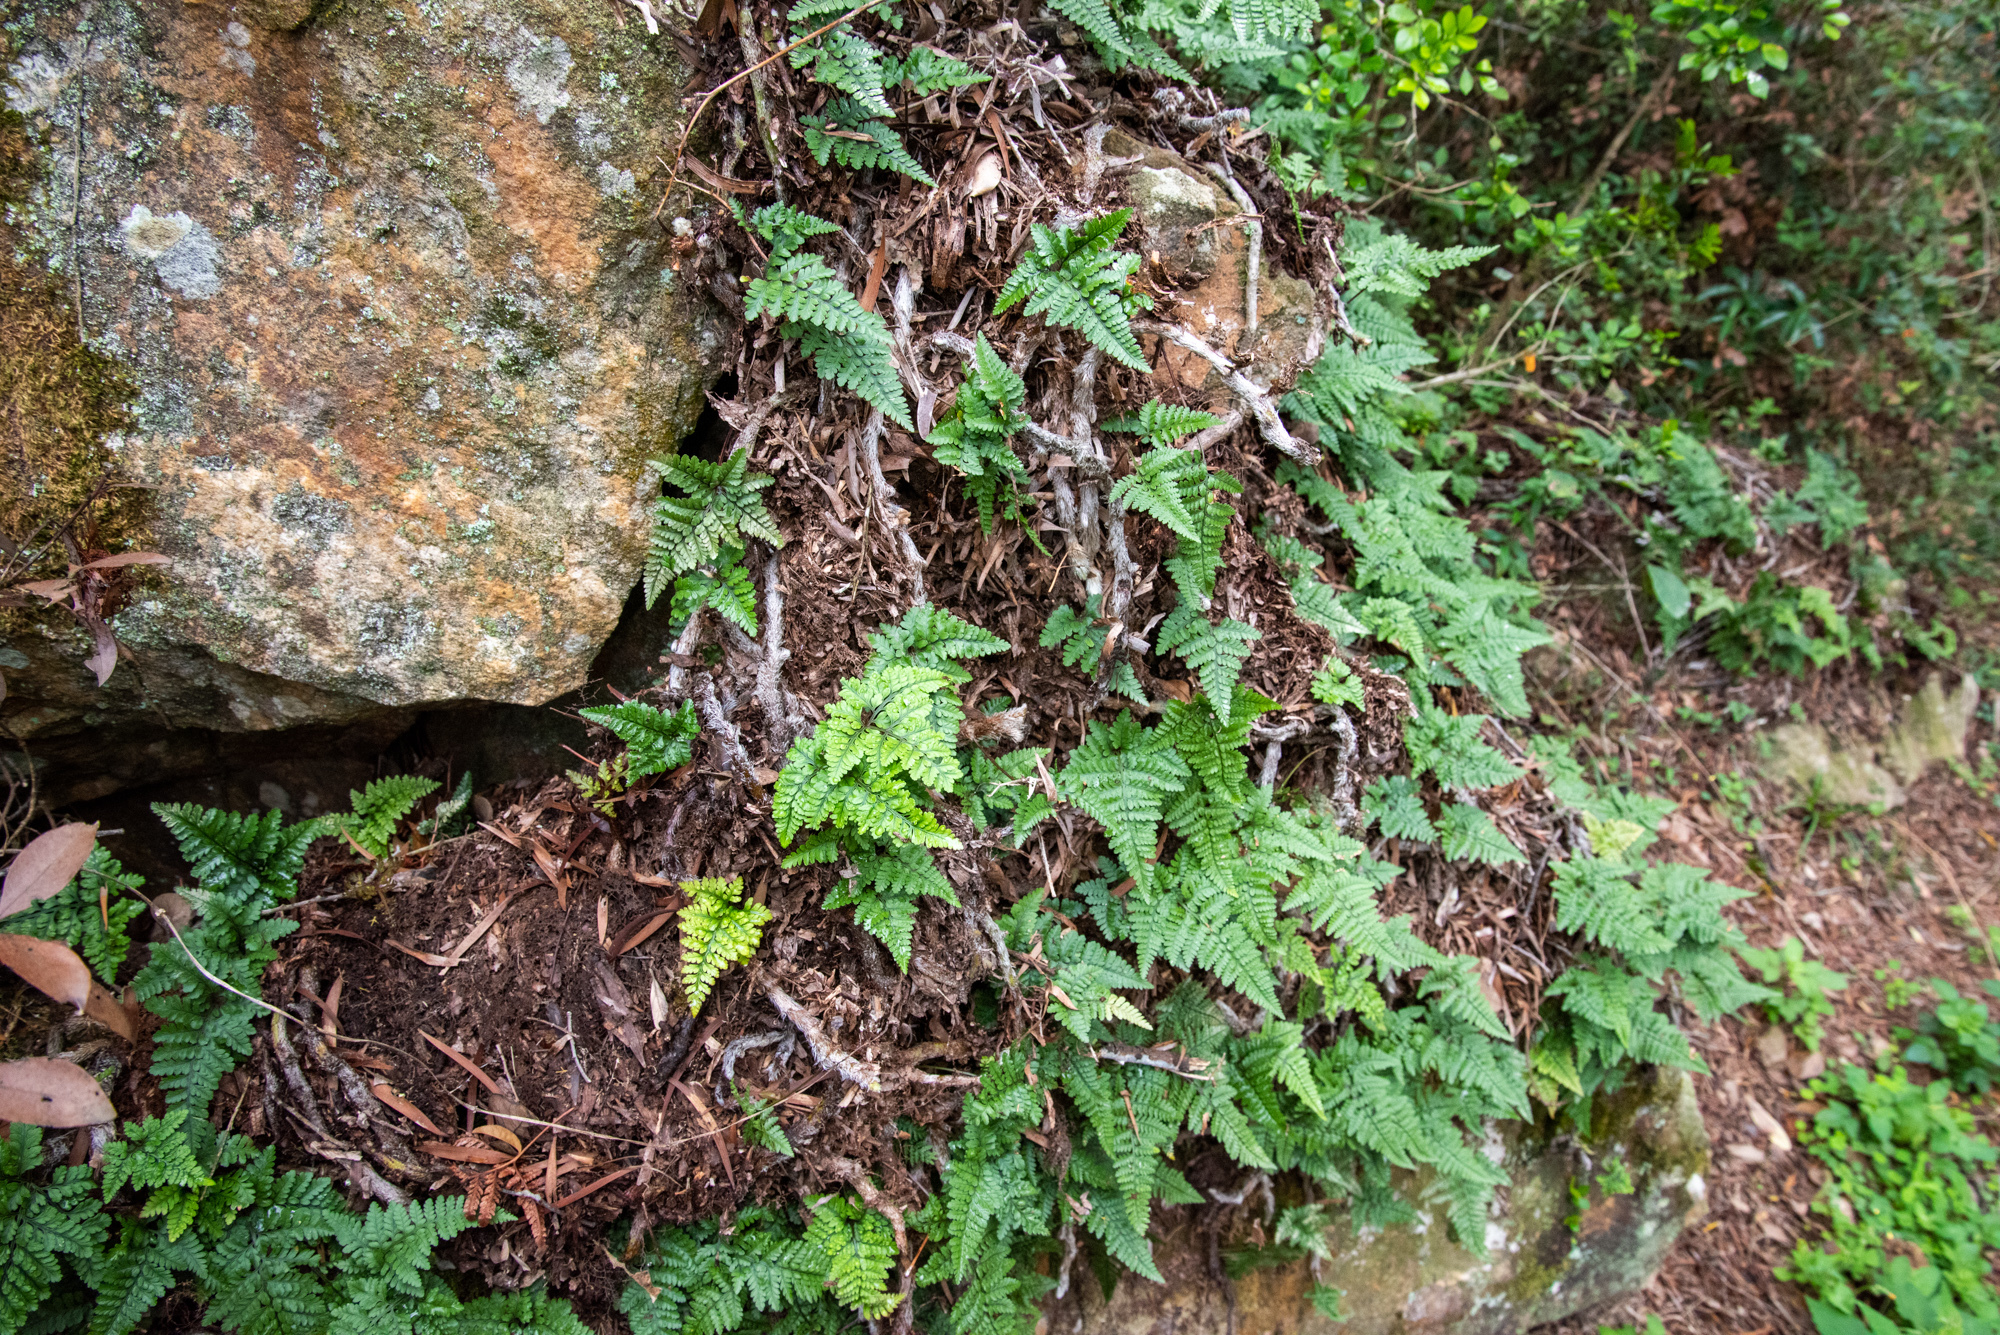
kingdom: Plantae
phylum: Tracheophyta
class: Polypodiopsida
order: Polypodiales
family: Davalliaceae
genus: Davallia
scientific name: Davallia griffithiana
